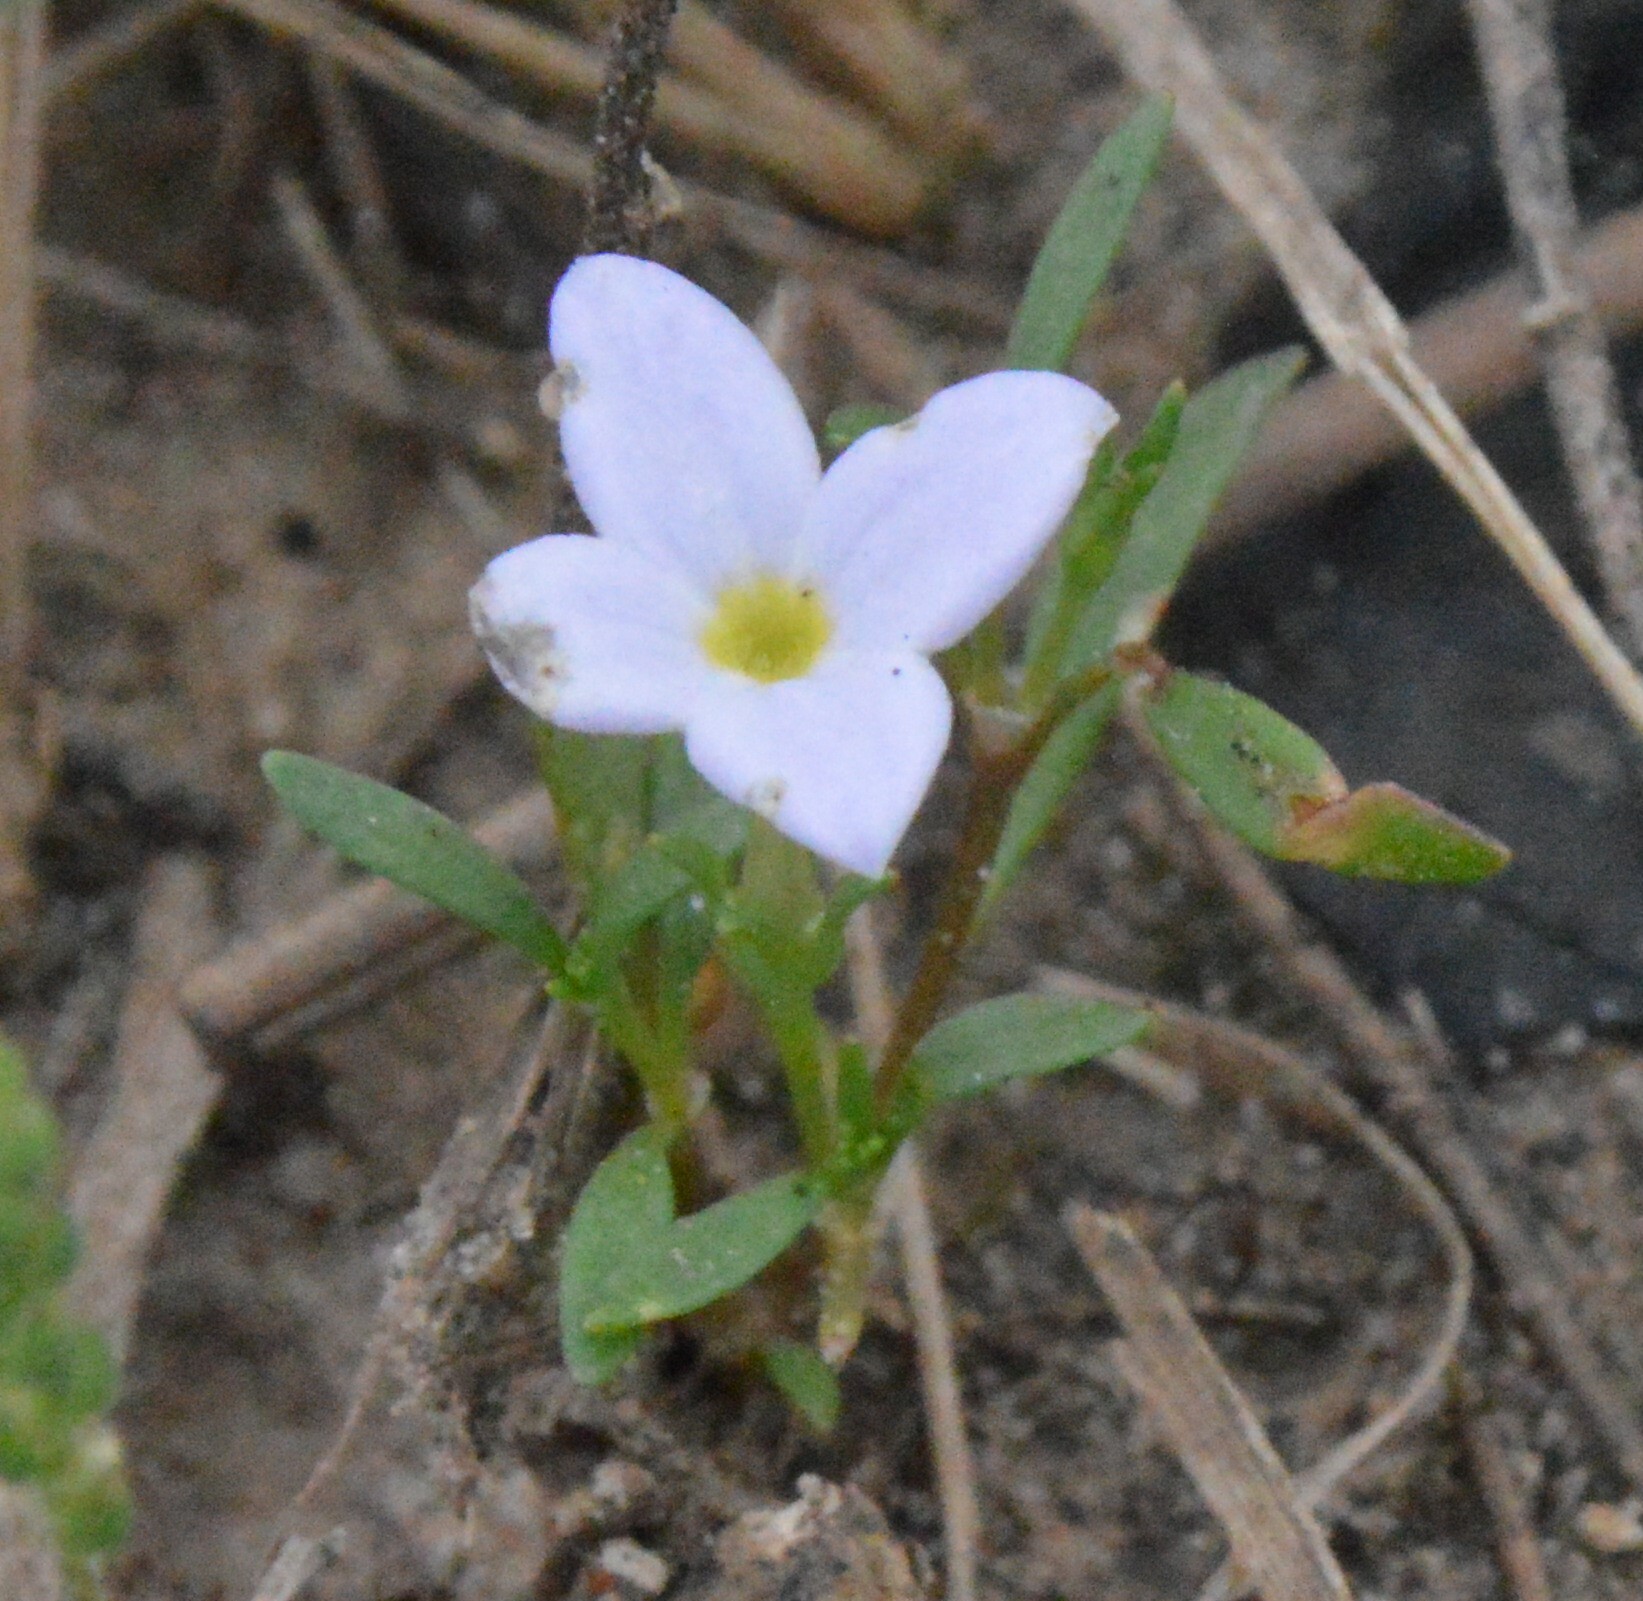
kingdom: Plantae
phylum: Tracheophyta
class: Magnoliopsida
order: Gentianales
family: Rubiaceae
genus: Houstonia
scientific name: Houstonia rosea
